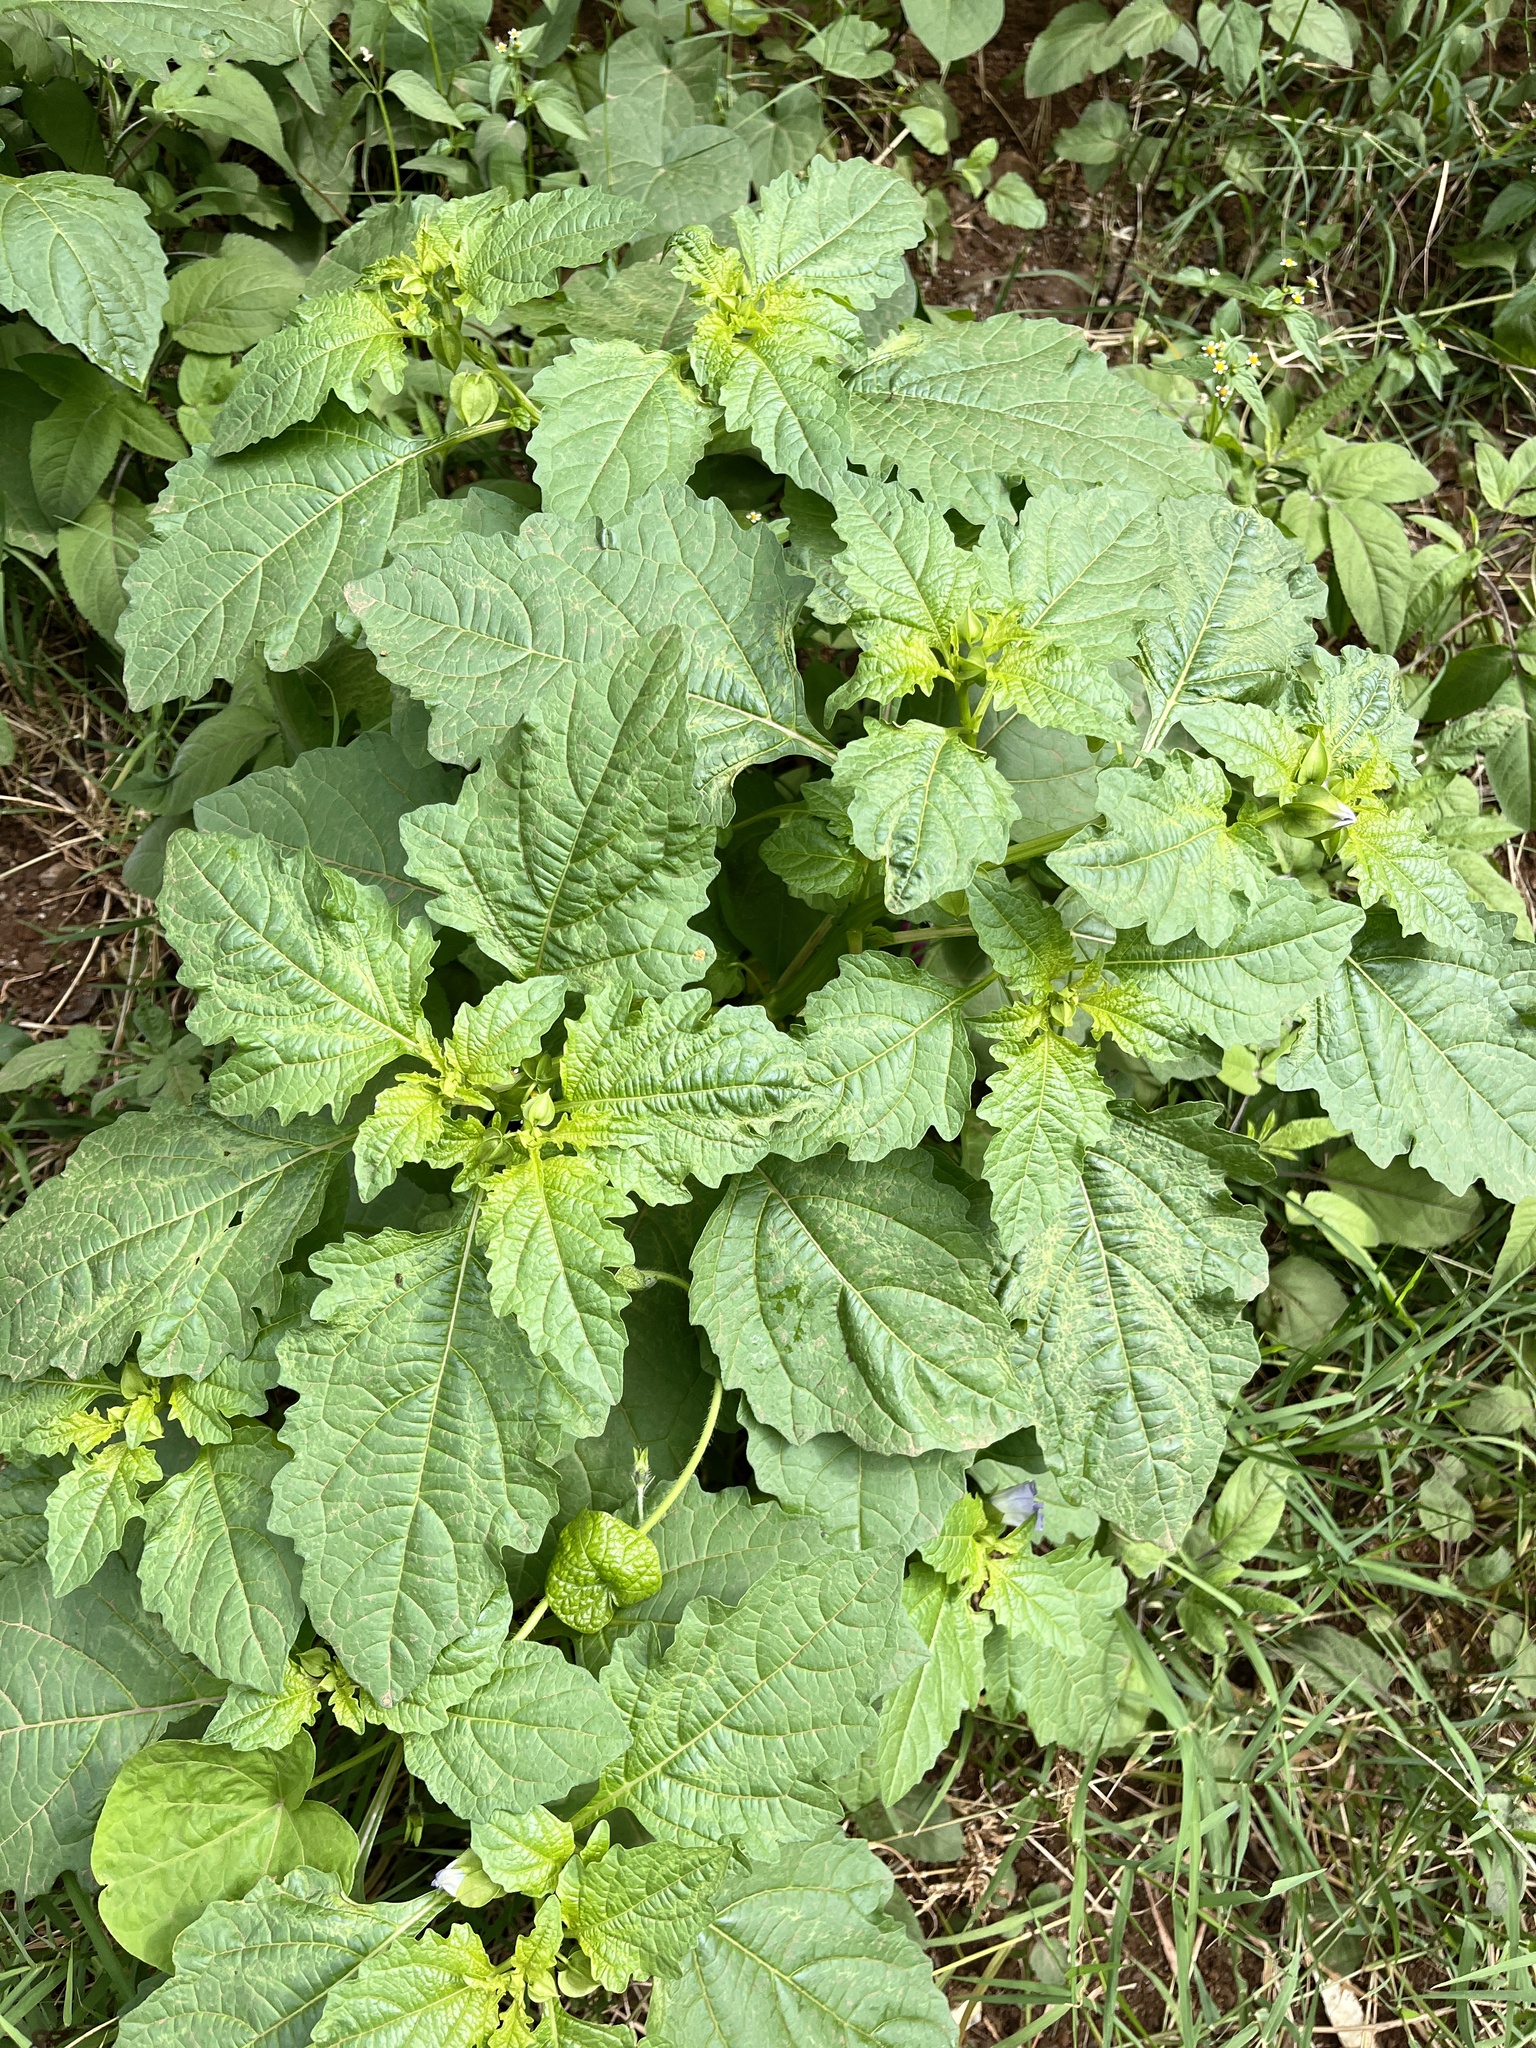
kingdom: Plantae
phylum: Tracheophyta
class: Magnoliopsida
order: Solanales
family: Solanaceae
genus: Nicandra
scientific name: Nicandra physalodes
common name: Apple-of-peru
